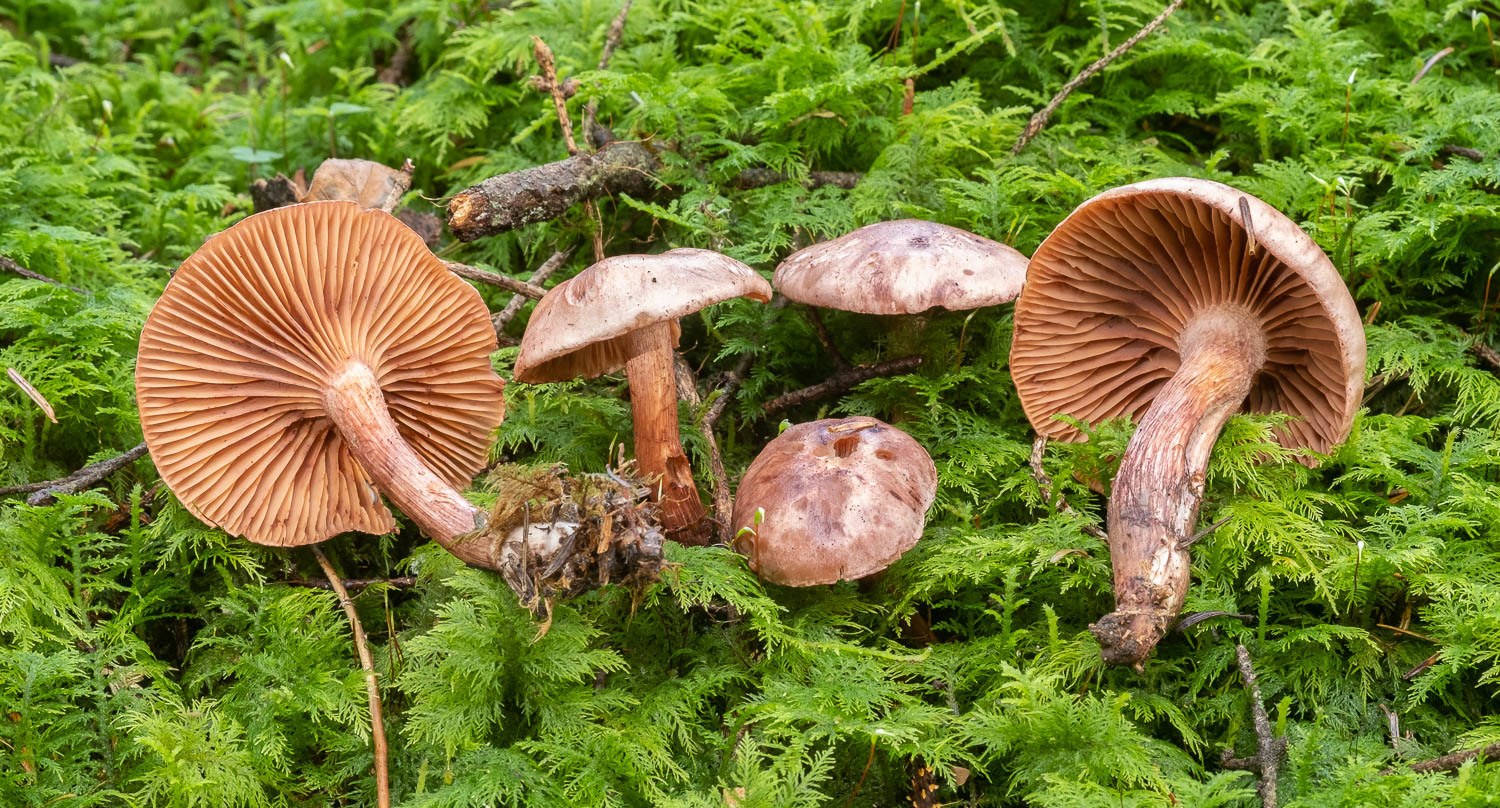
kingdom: Fungi
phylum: Basidiomycota
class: Agaricomycetes
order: Agaricales
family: Hygrophoraceae
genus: Hygrophorus
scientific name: Hygrophorus capreolarius
